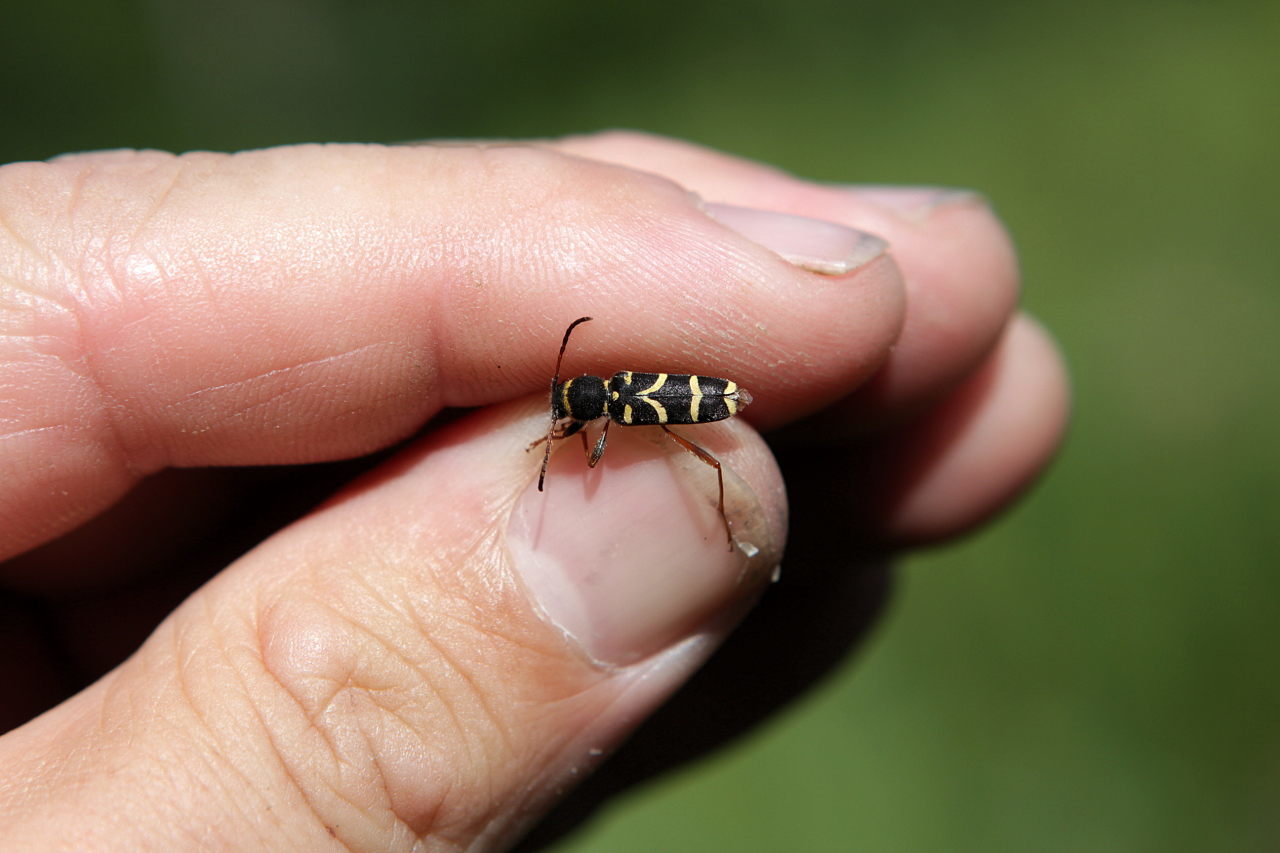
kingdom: Animalia
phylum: Arthropoda
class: Insecta
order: Coleoptera
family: Cerambycidae
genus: Clytus
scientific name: Clytus arietis
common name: Wasp beetle
